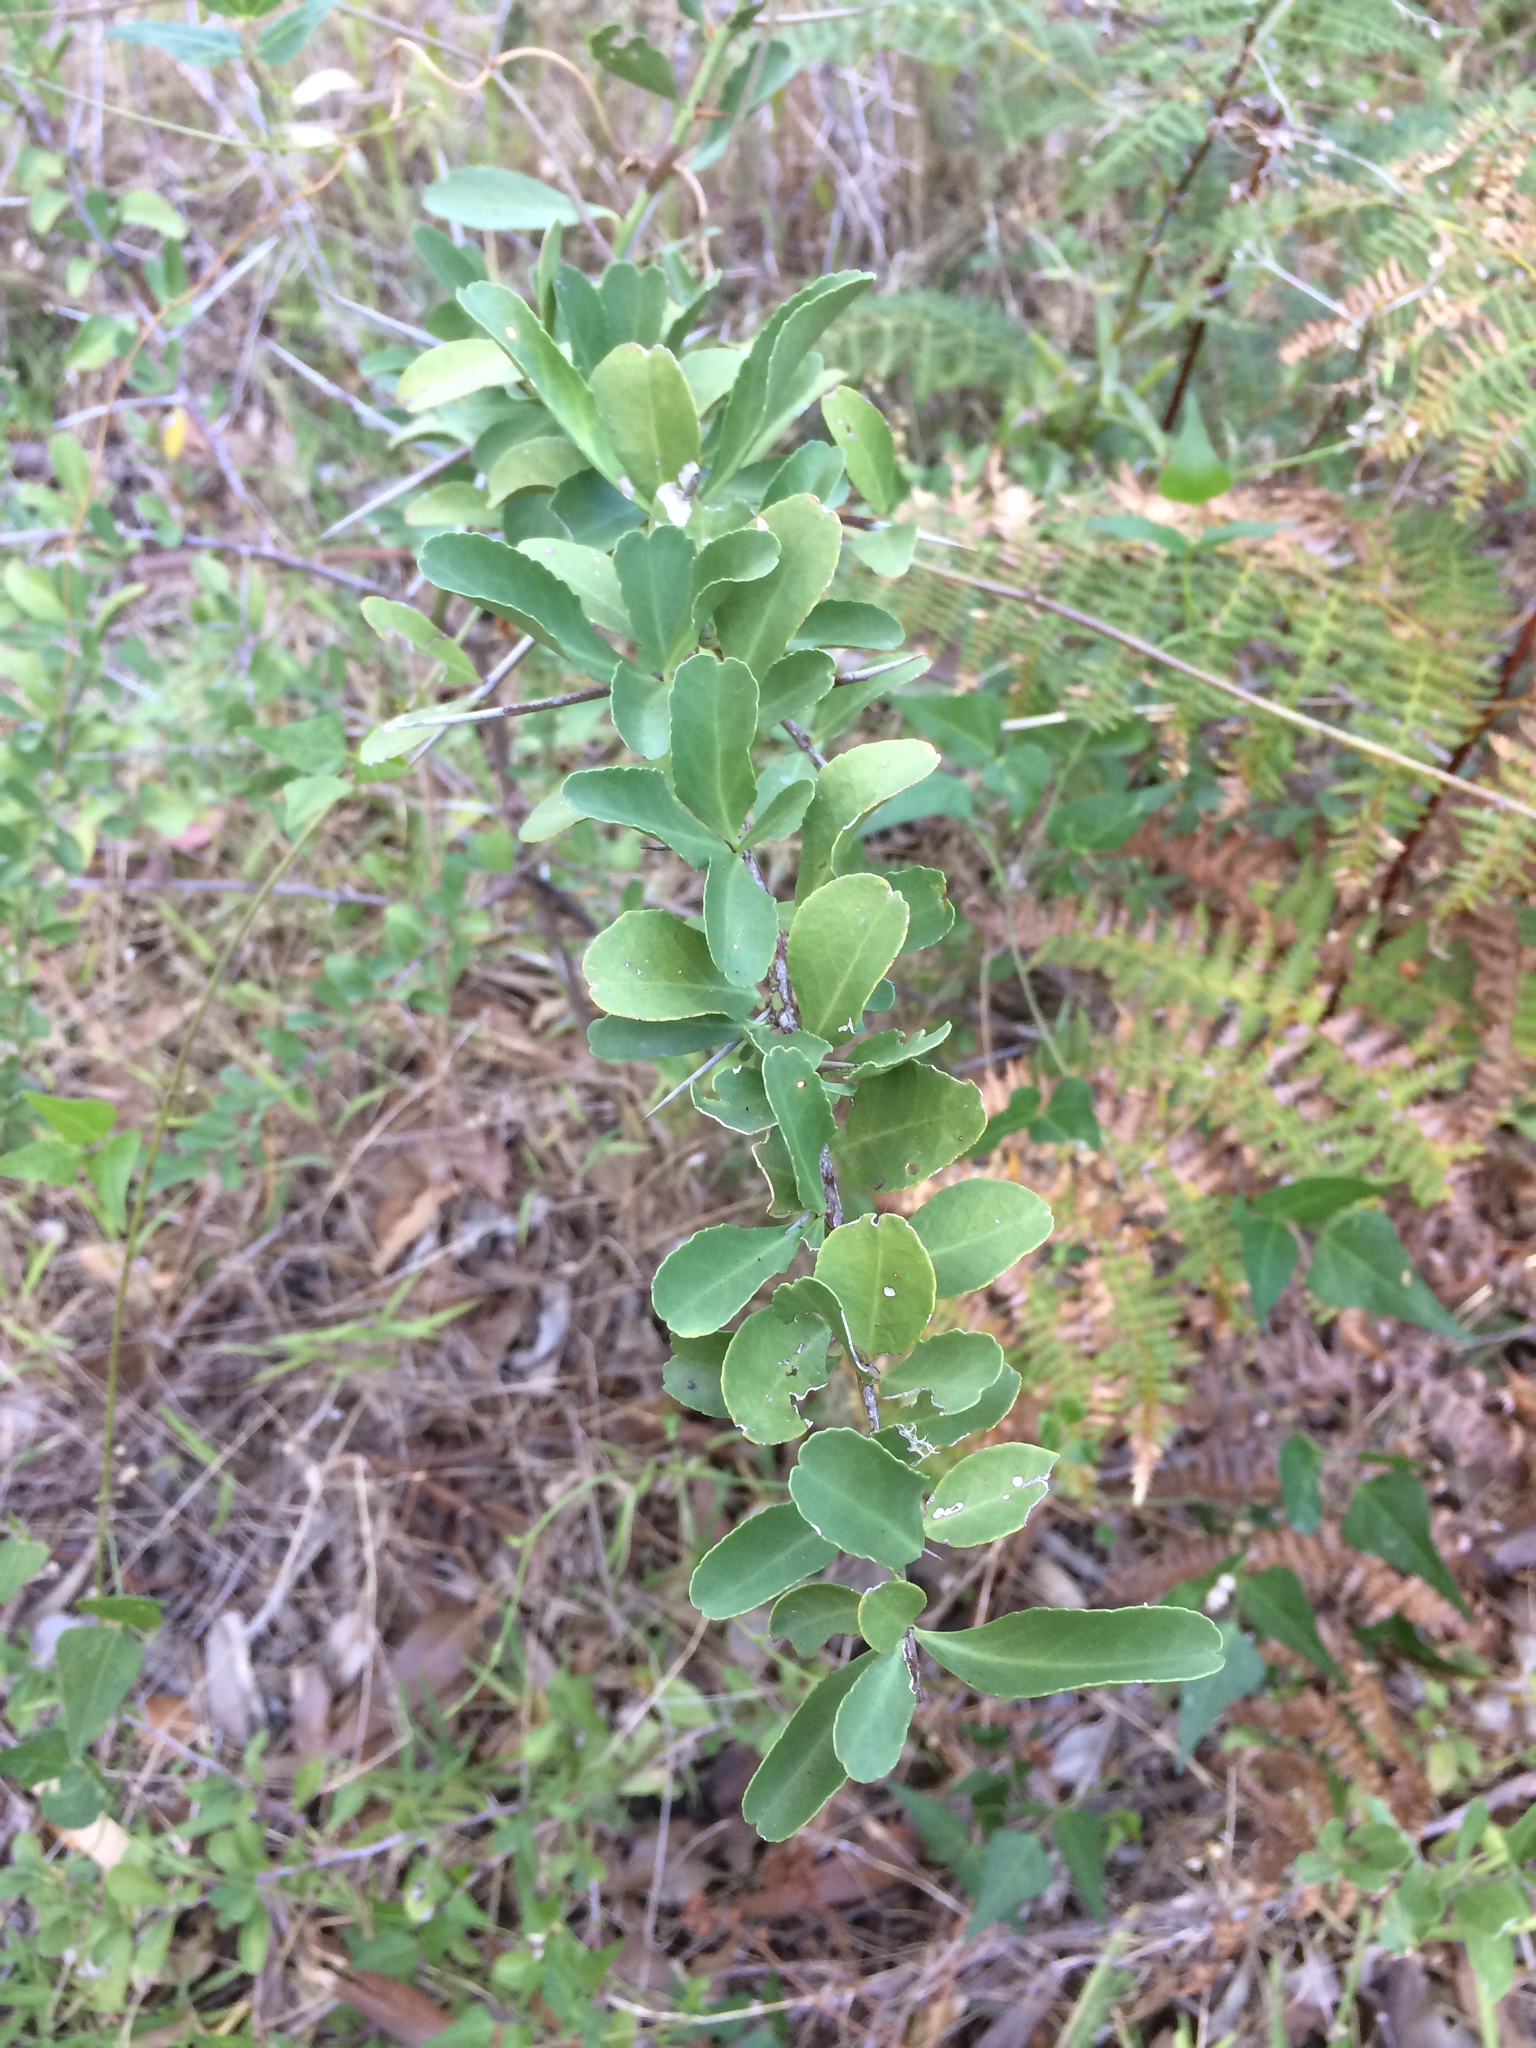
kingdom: Plantae
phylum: Tracheophyta
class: Magnoliopsida
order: Celastrales
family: Celastraceae
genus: Gymnosporia
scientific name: Gymnosporia buxifolia
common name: Common spike-thorn
